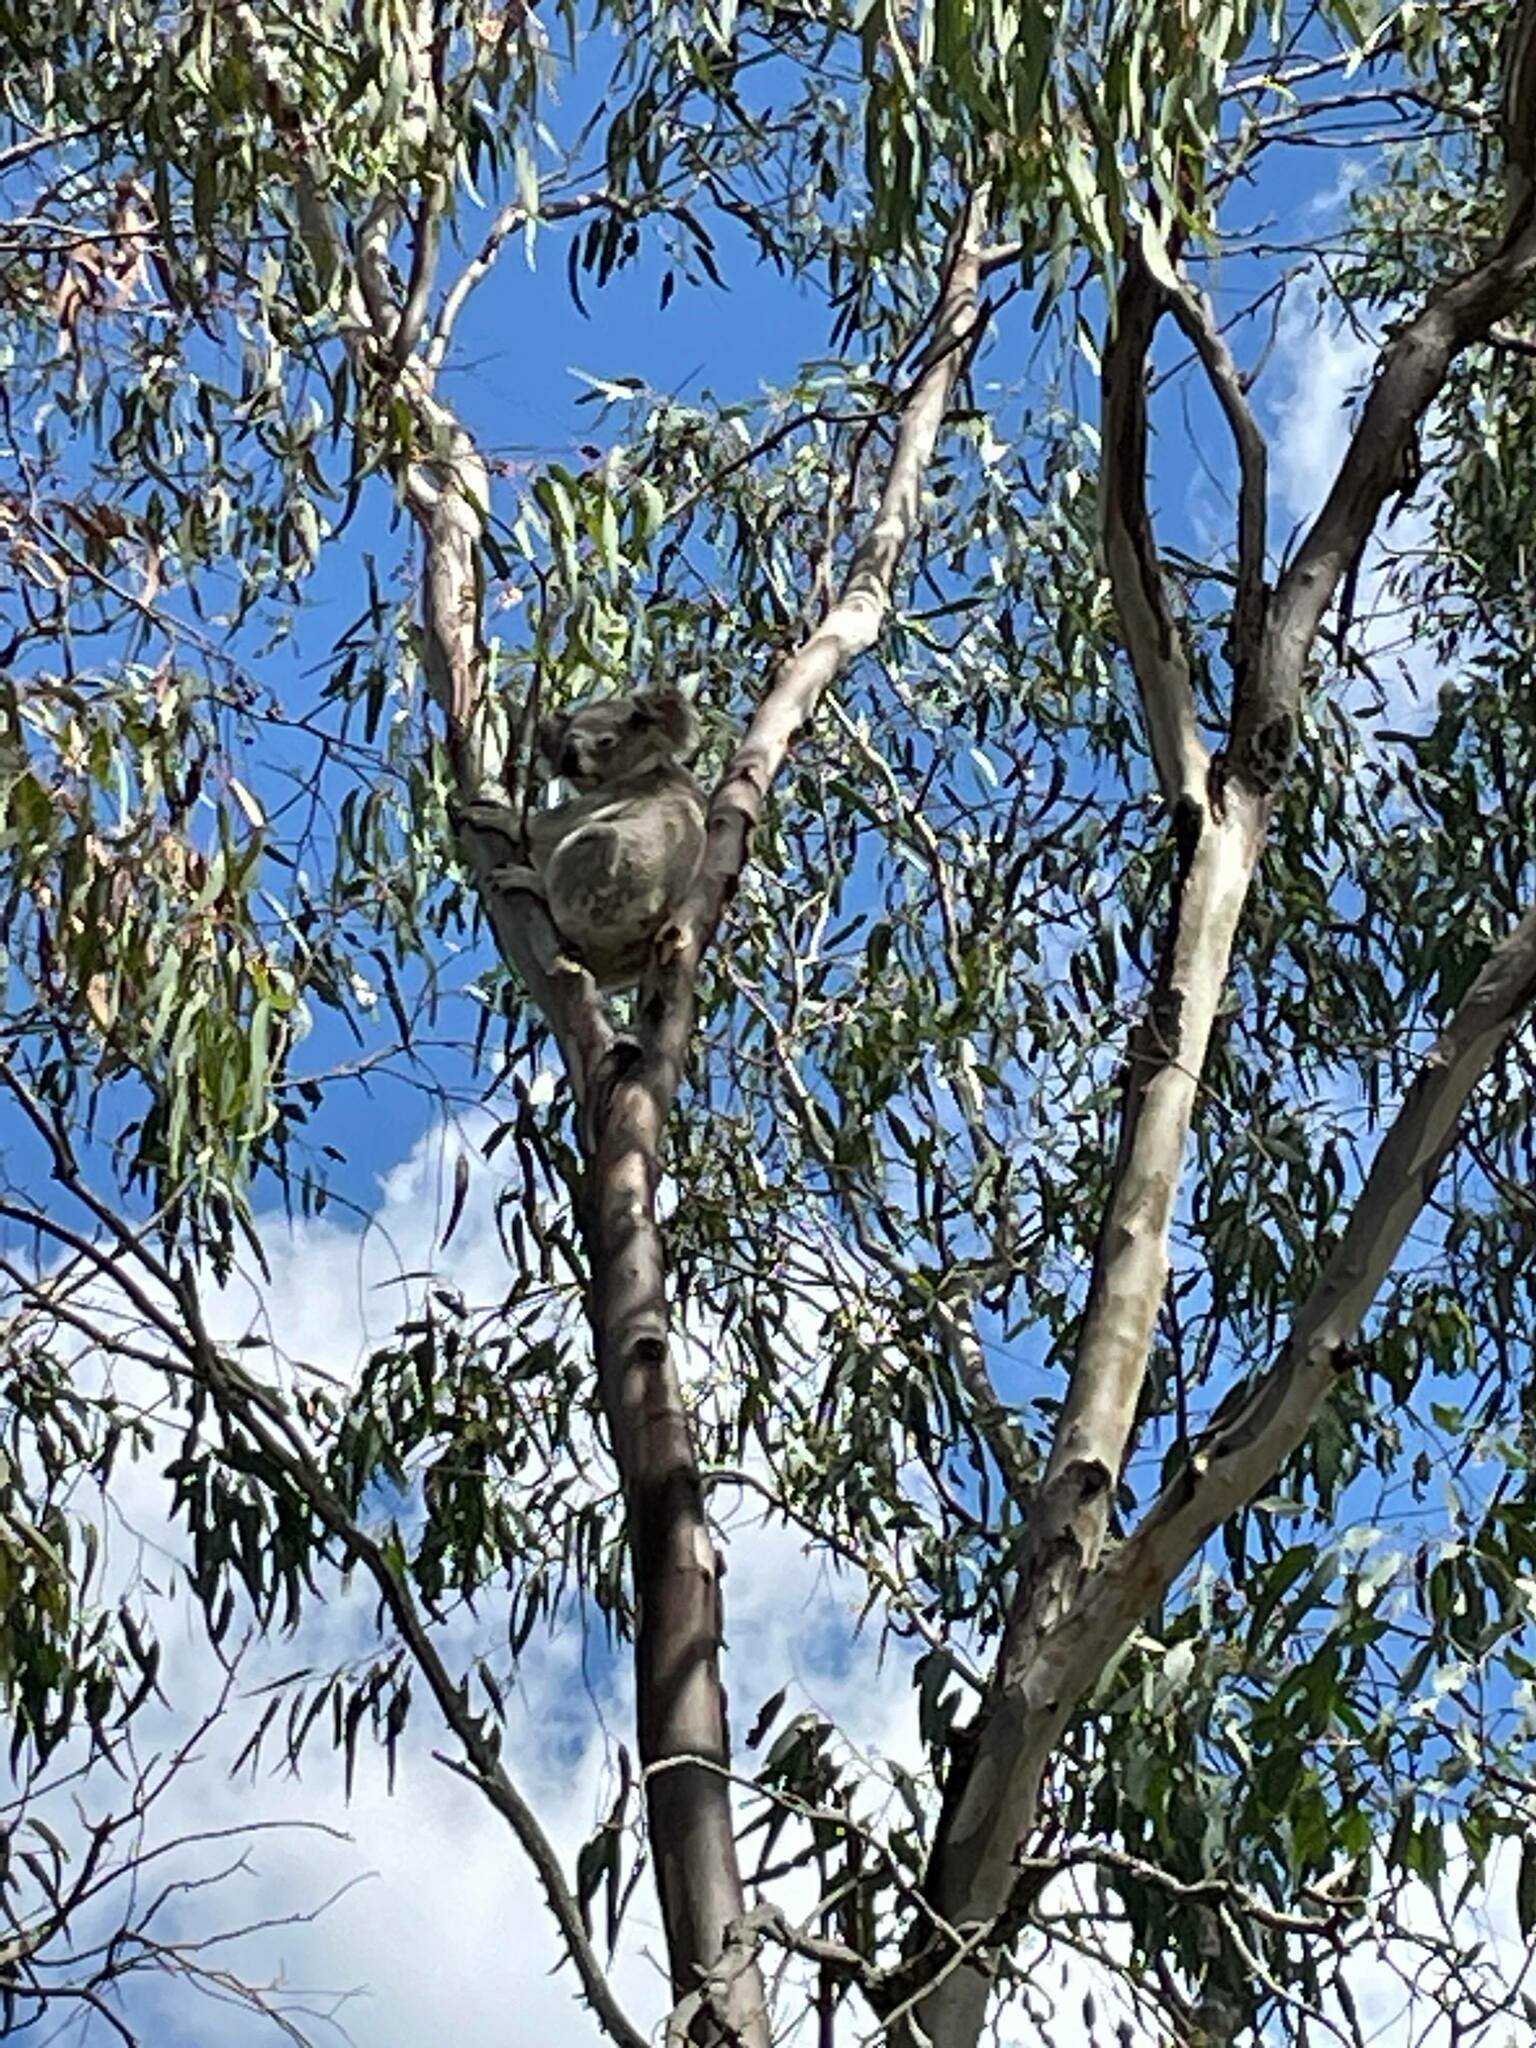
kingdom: Animalia
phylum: Chordata
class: Mammalia
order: Diprotodontia
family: Phascolarctidae
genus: Phascolarctos
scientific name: Phascolarctos cinereus
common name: Koala
